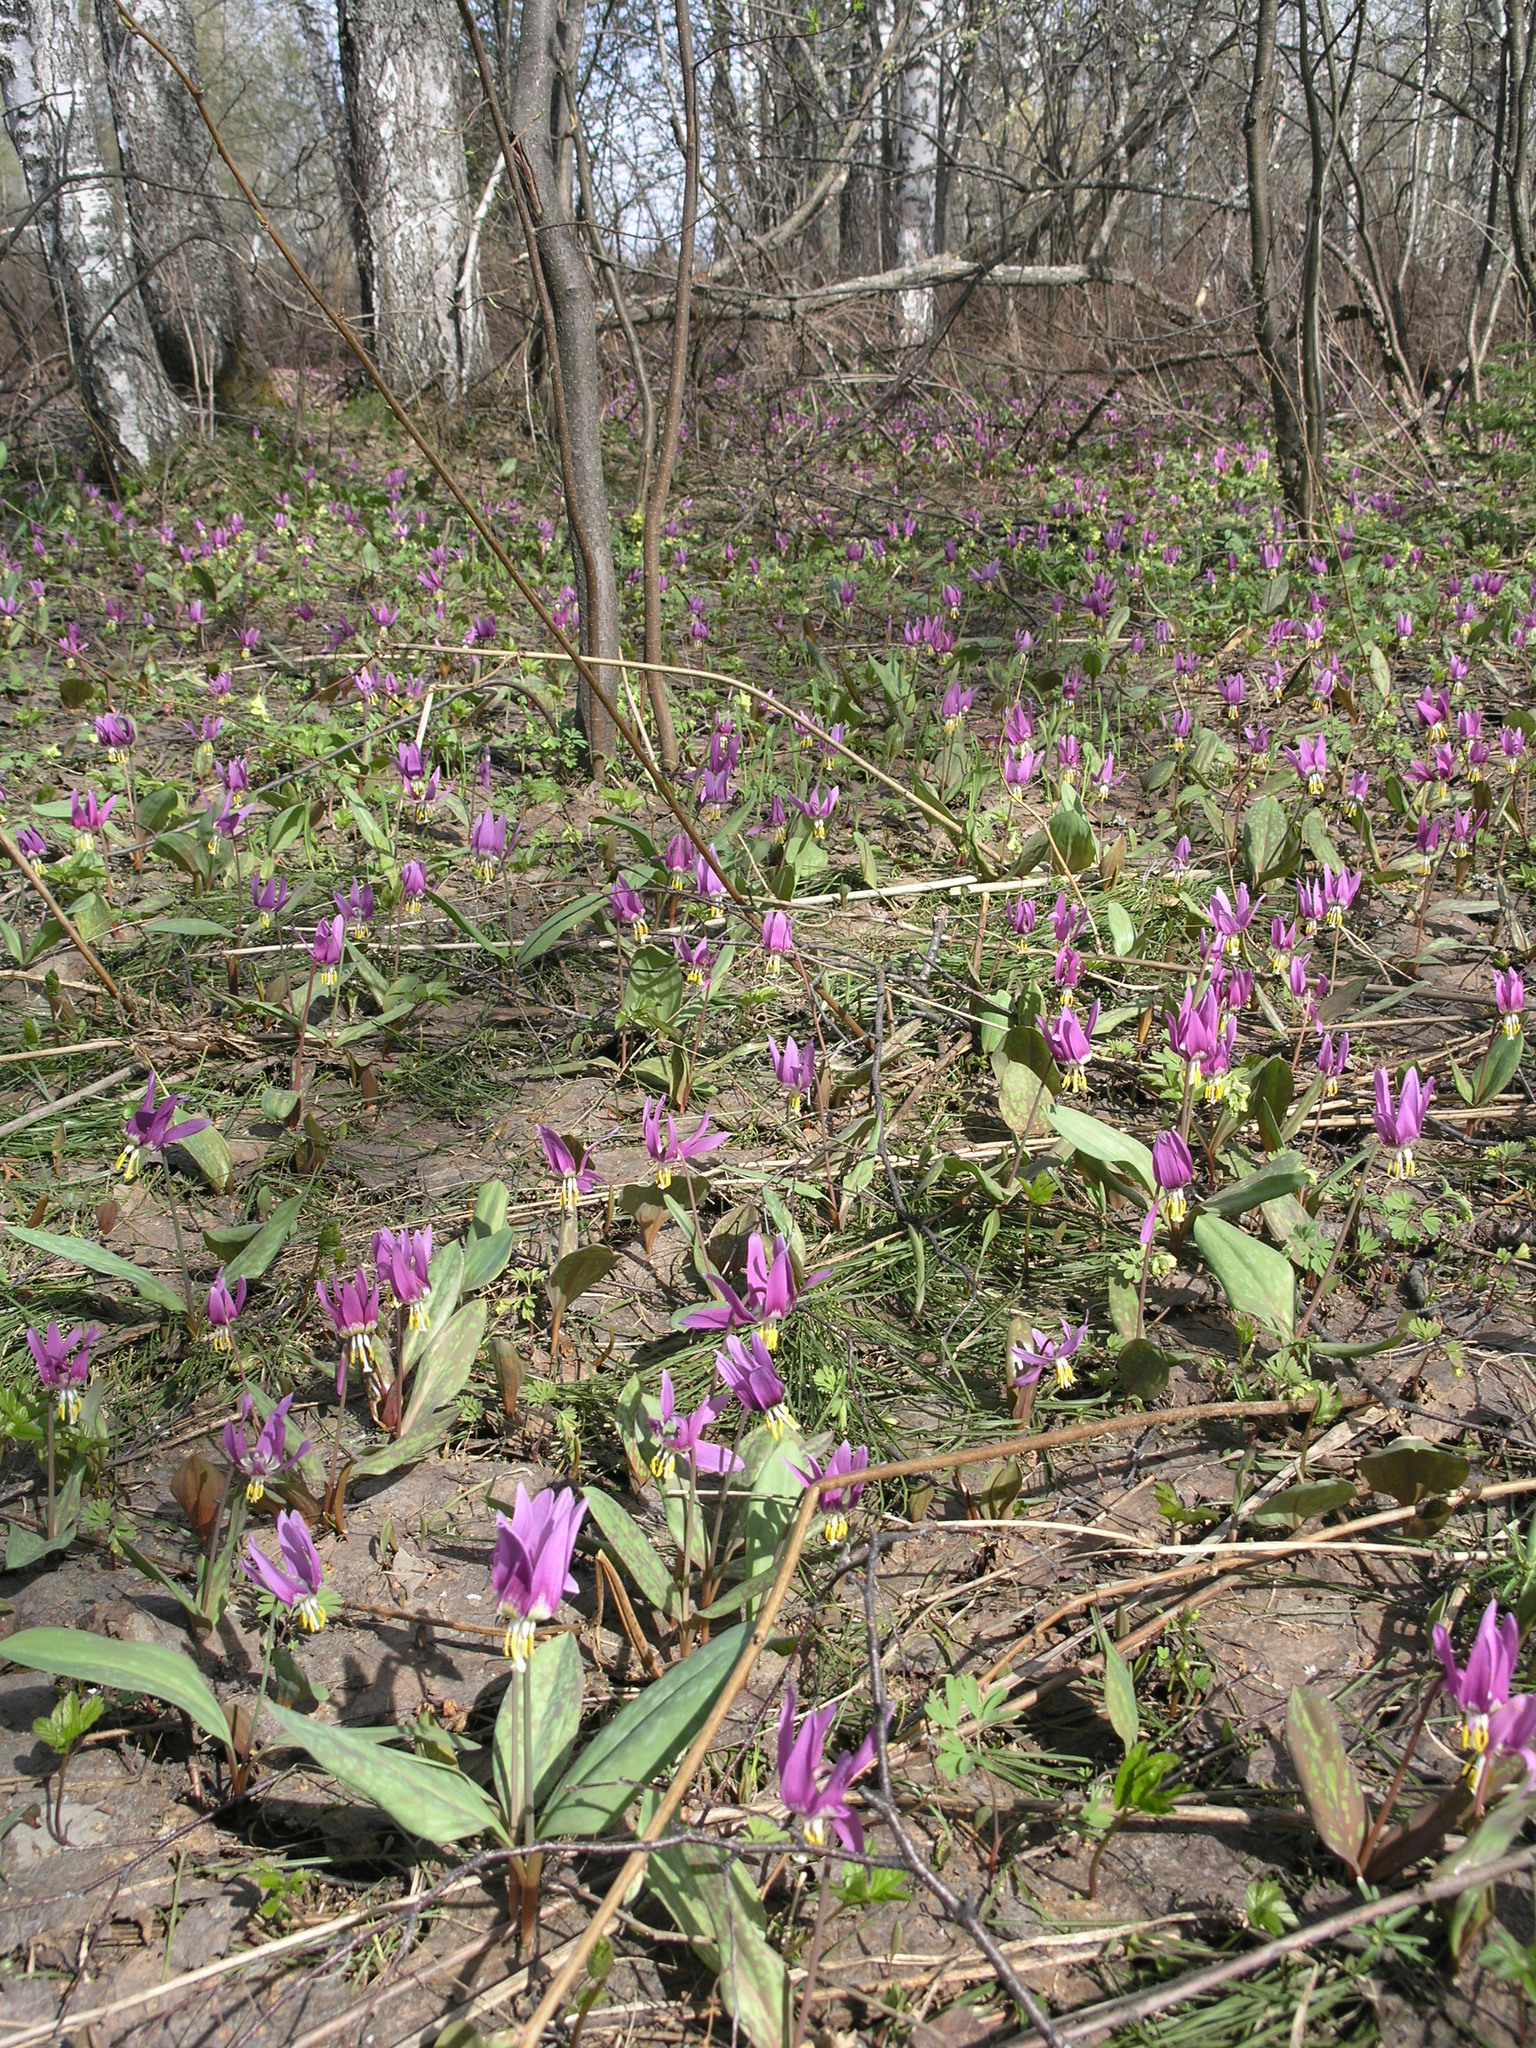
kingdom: Plantae
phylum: Tracheophyta
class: Liliopsida
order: Liliales
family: Liliaceae
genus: Erythronium
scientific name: Erythronium sibiricum
